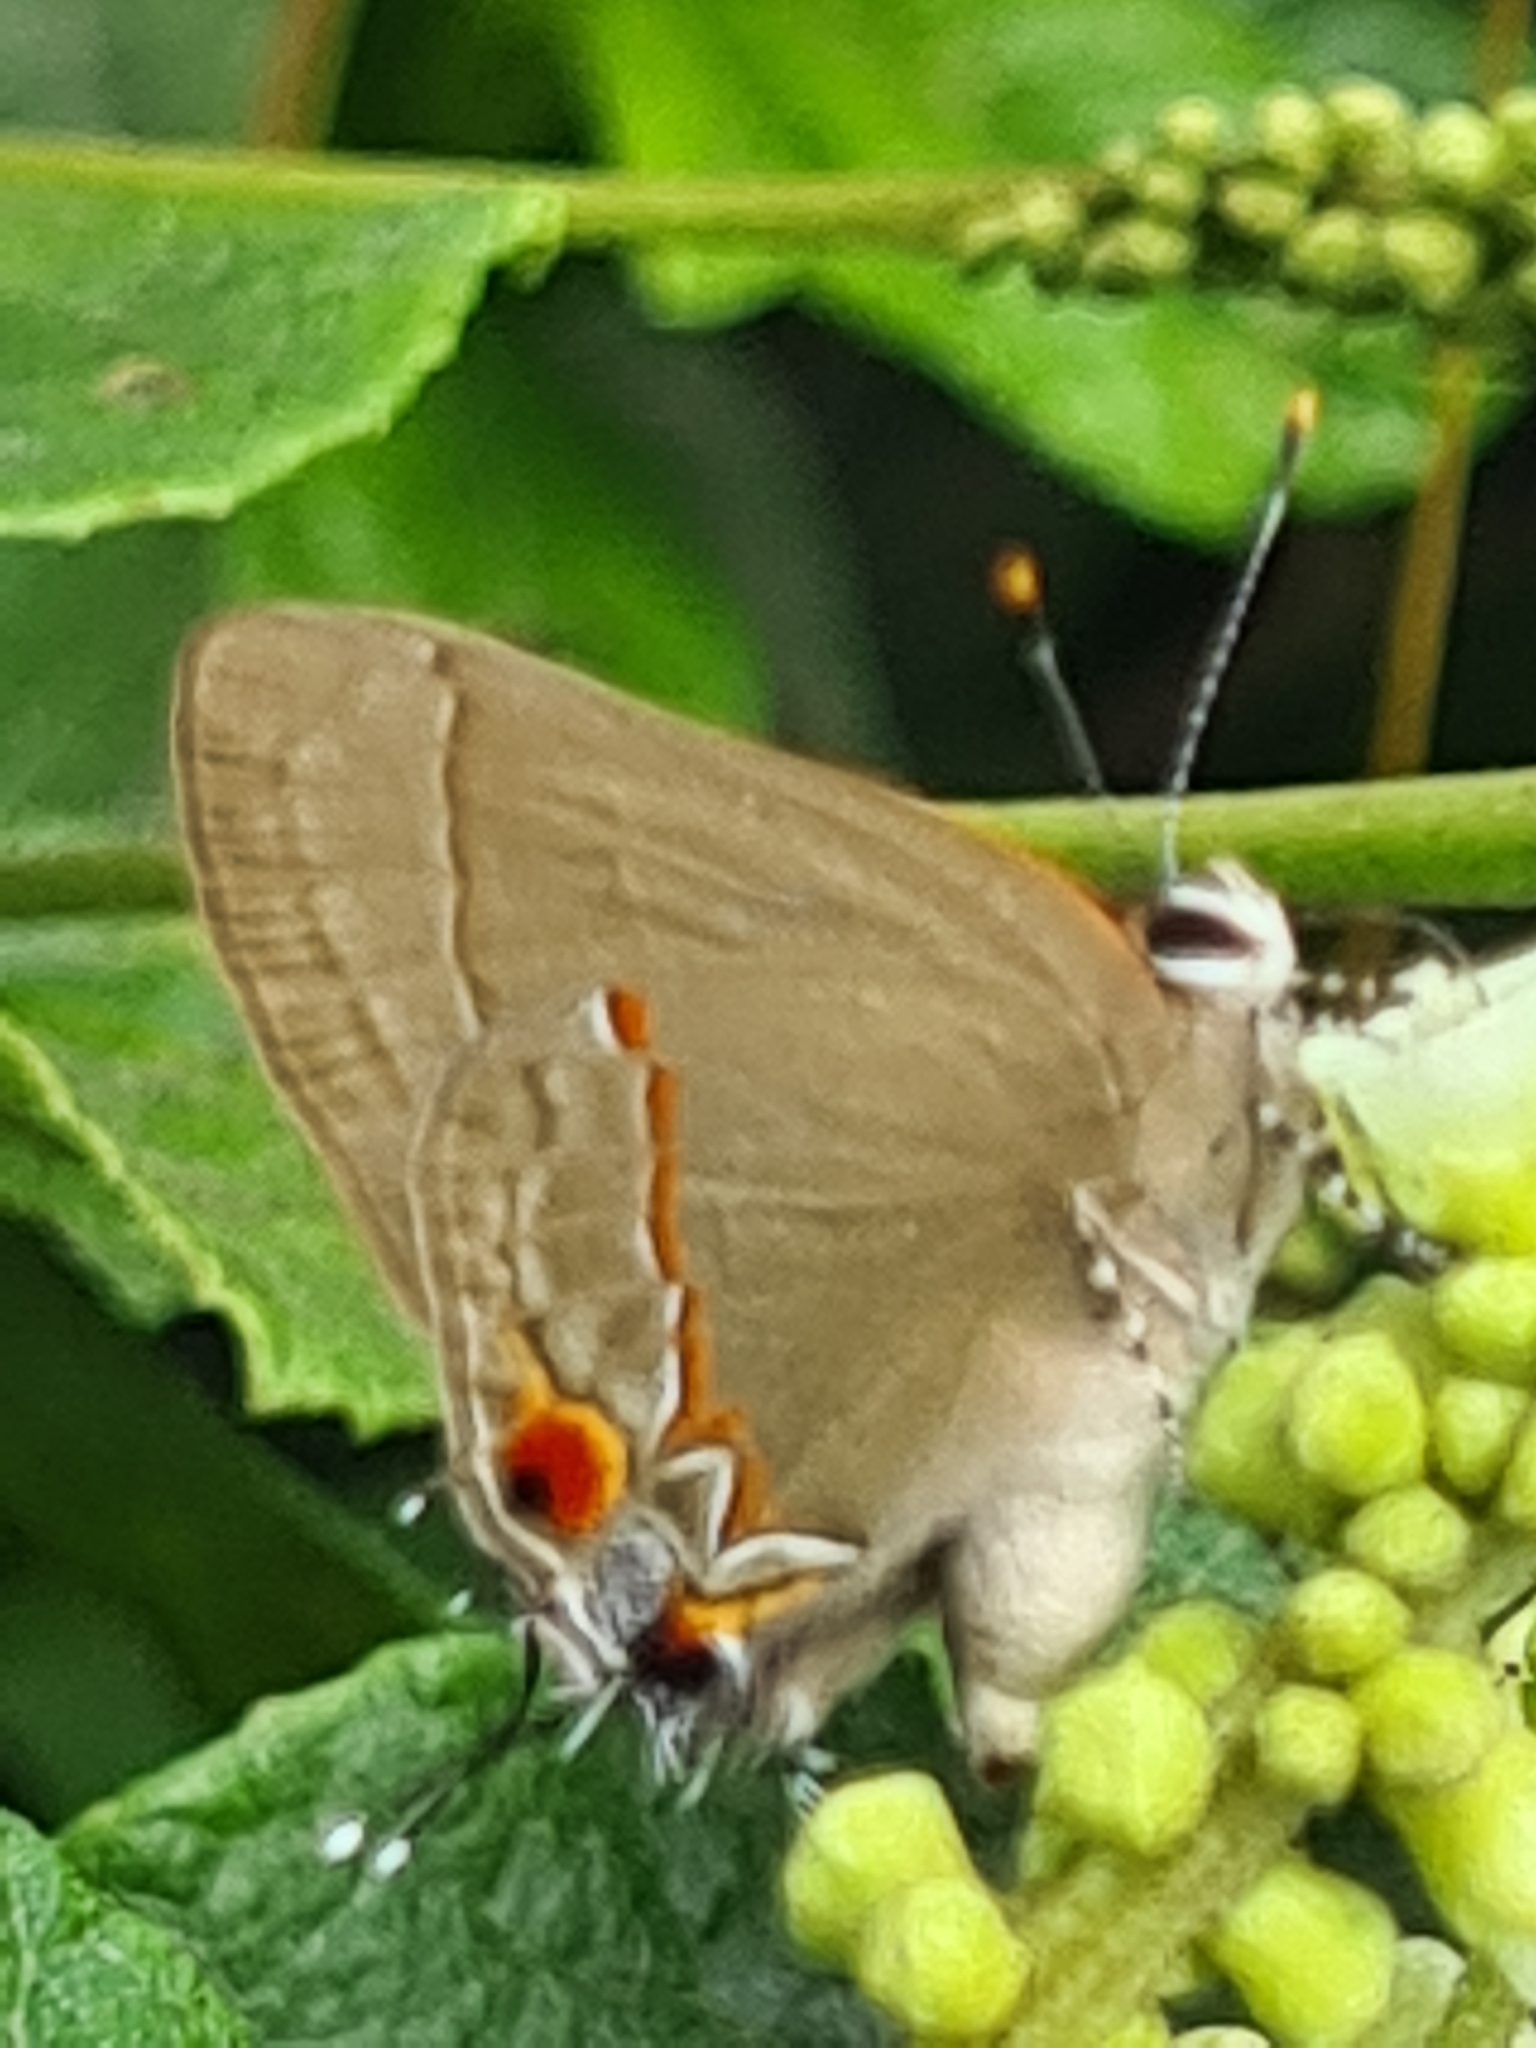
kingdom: Animalia
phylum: Arthropoda
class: Insecta
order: Lepidoptera
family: Lycaenidae
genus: Thecla
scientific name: Thecla syllis
